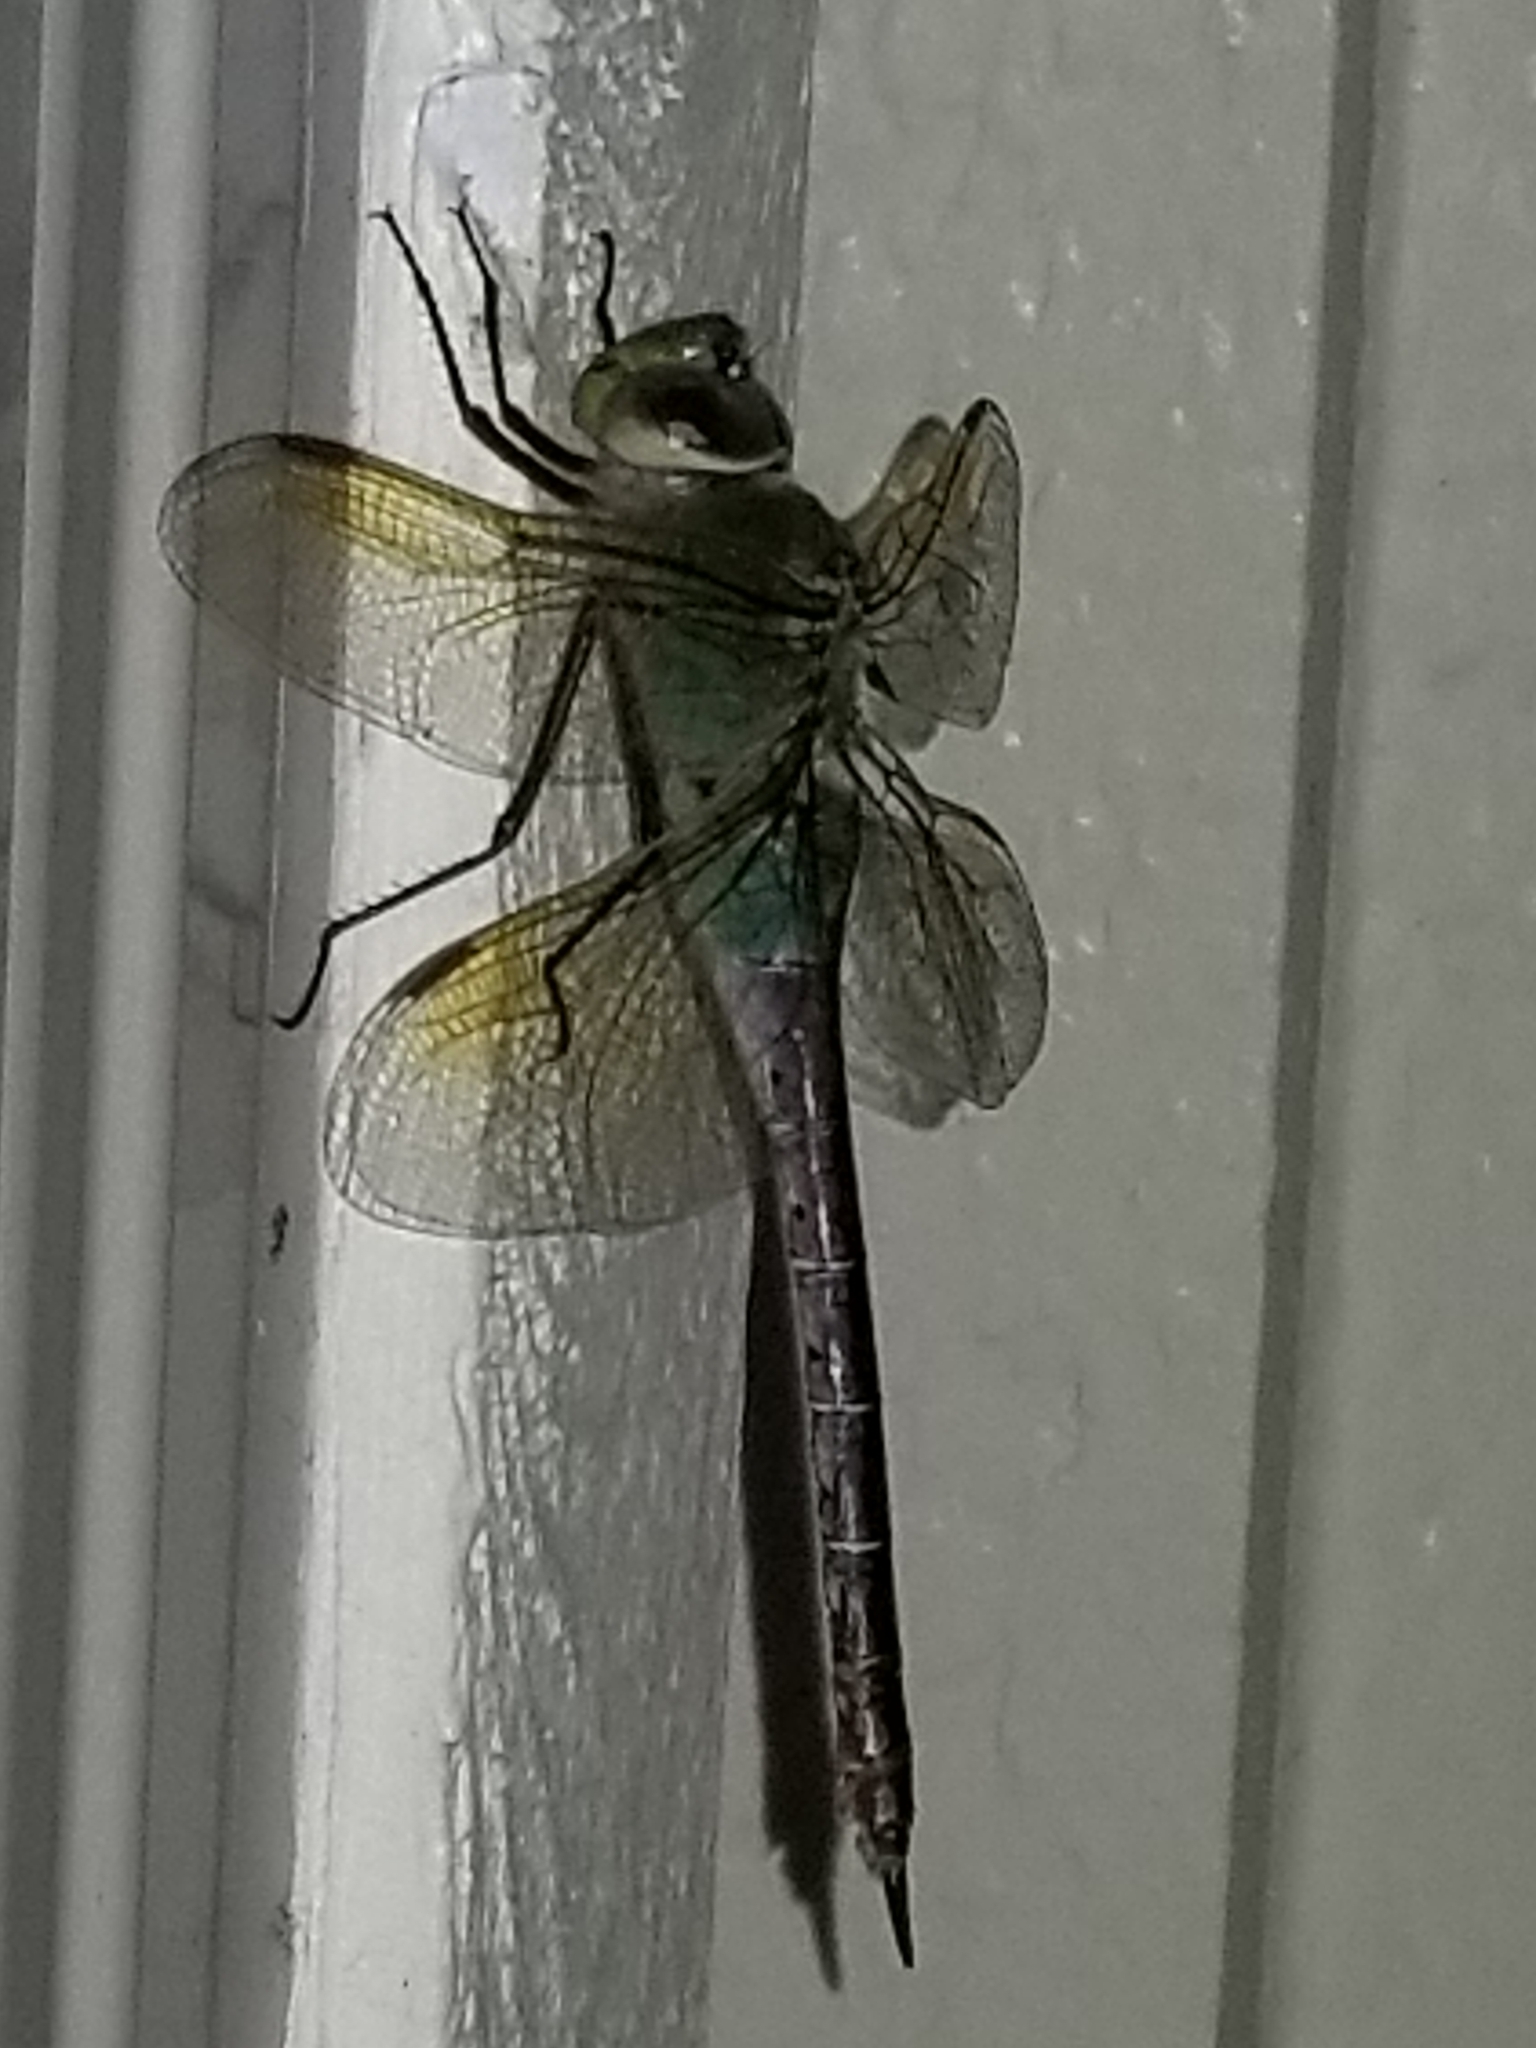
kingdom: Animalia
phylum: Arthropoda
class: Insecta
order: Odonata
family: Aeshnidae
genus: Anax
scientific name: Anax junius
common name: Common green darner
